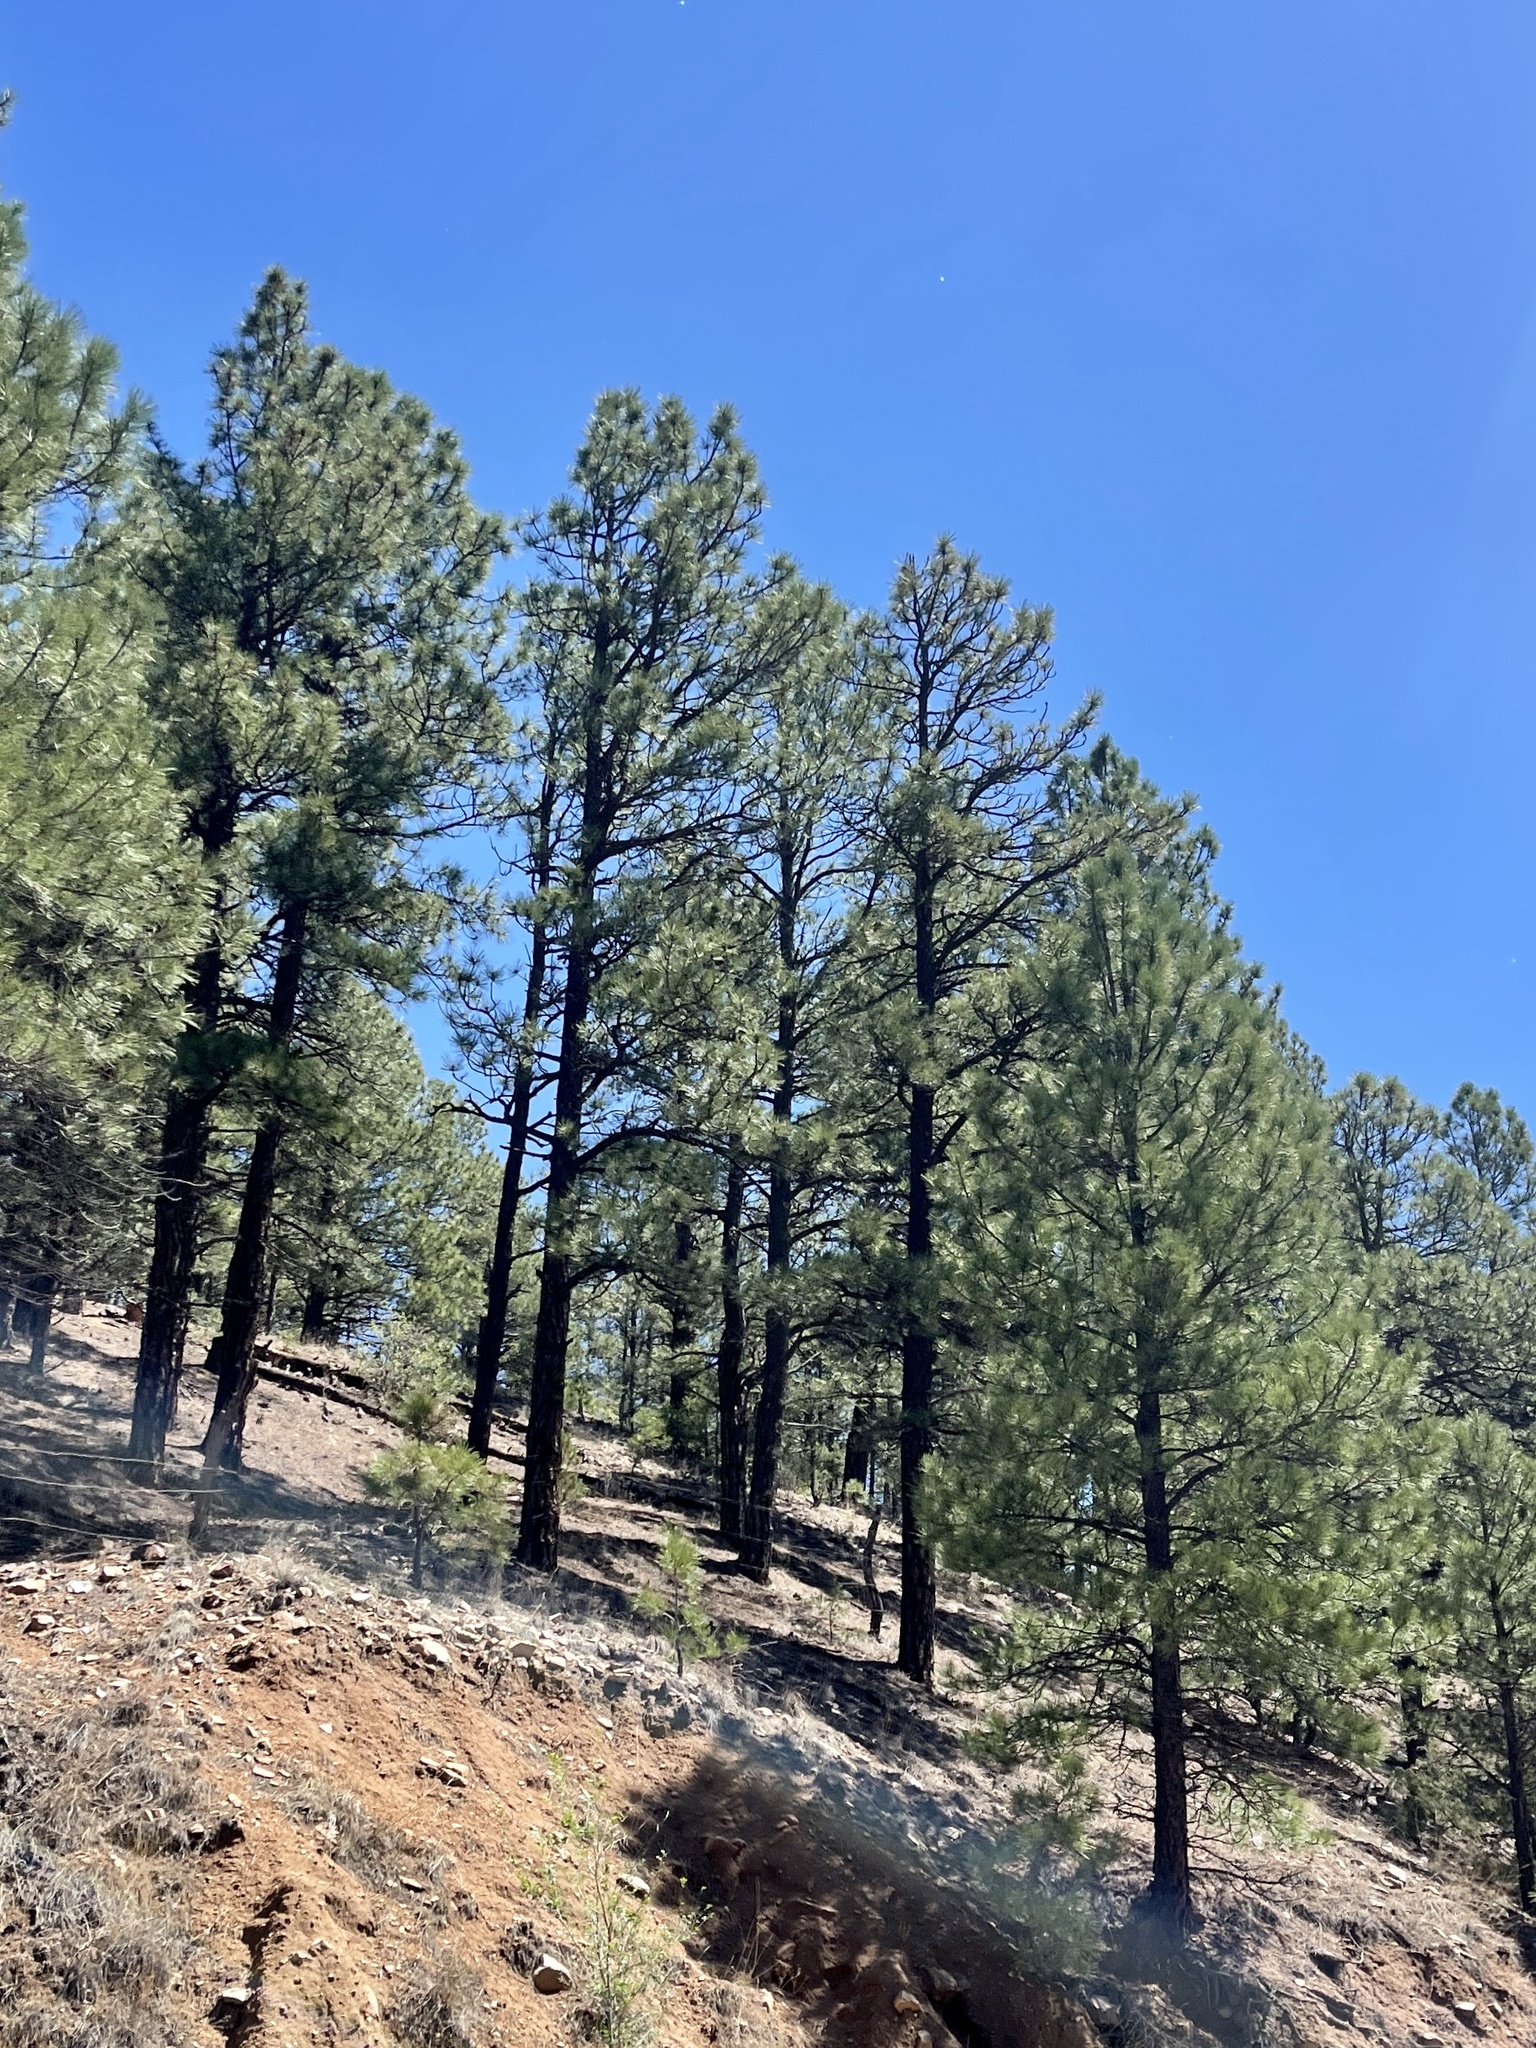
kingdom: Plantae
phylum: Tracheophyta
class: Pinopsida
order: Pinales
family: Pinaceae
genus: Pinus
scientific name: Pinus ponderosa
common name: Western yellow-pine
